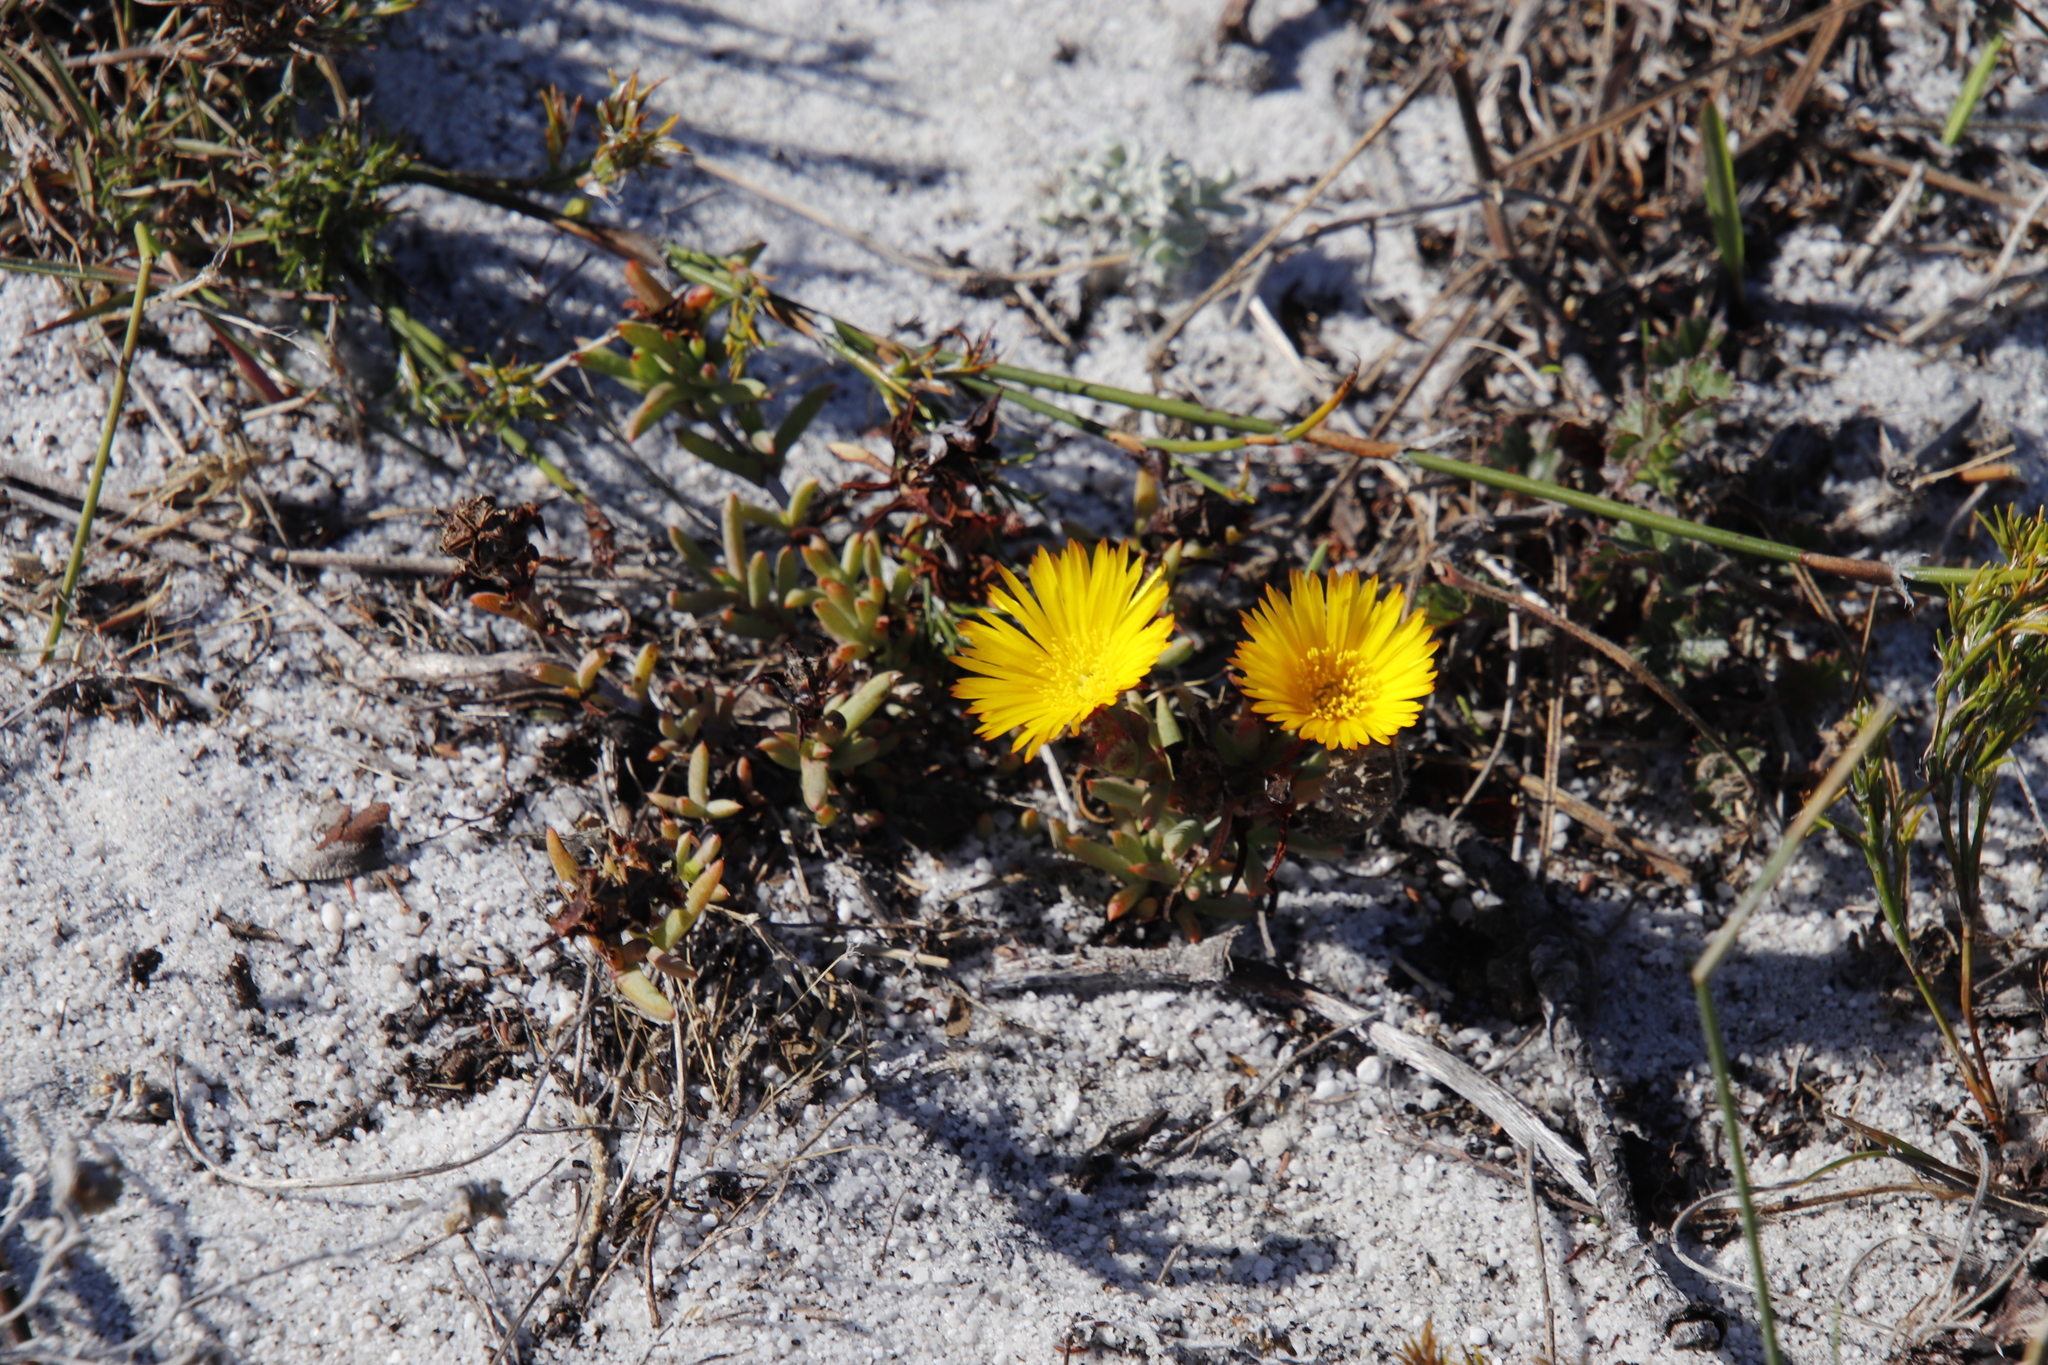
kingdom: Plantae
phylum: Tracheophyta
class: Magnoliopsida
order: Caryophyllales
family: Aizoaceae
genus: Lampranthus
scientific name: Lampranthus promontorii
